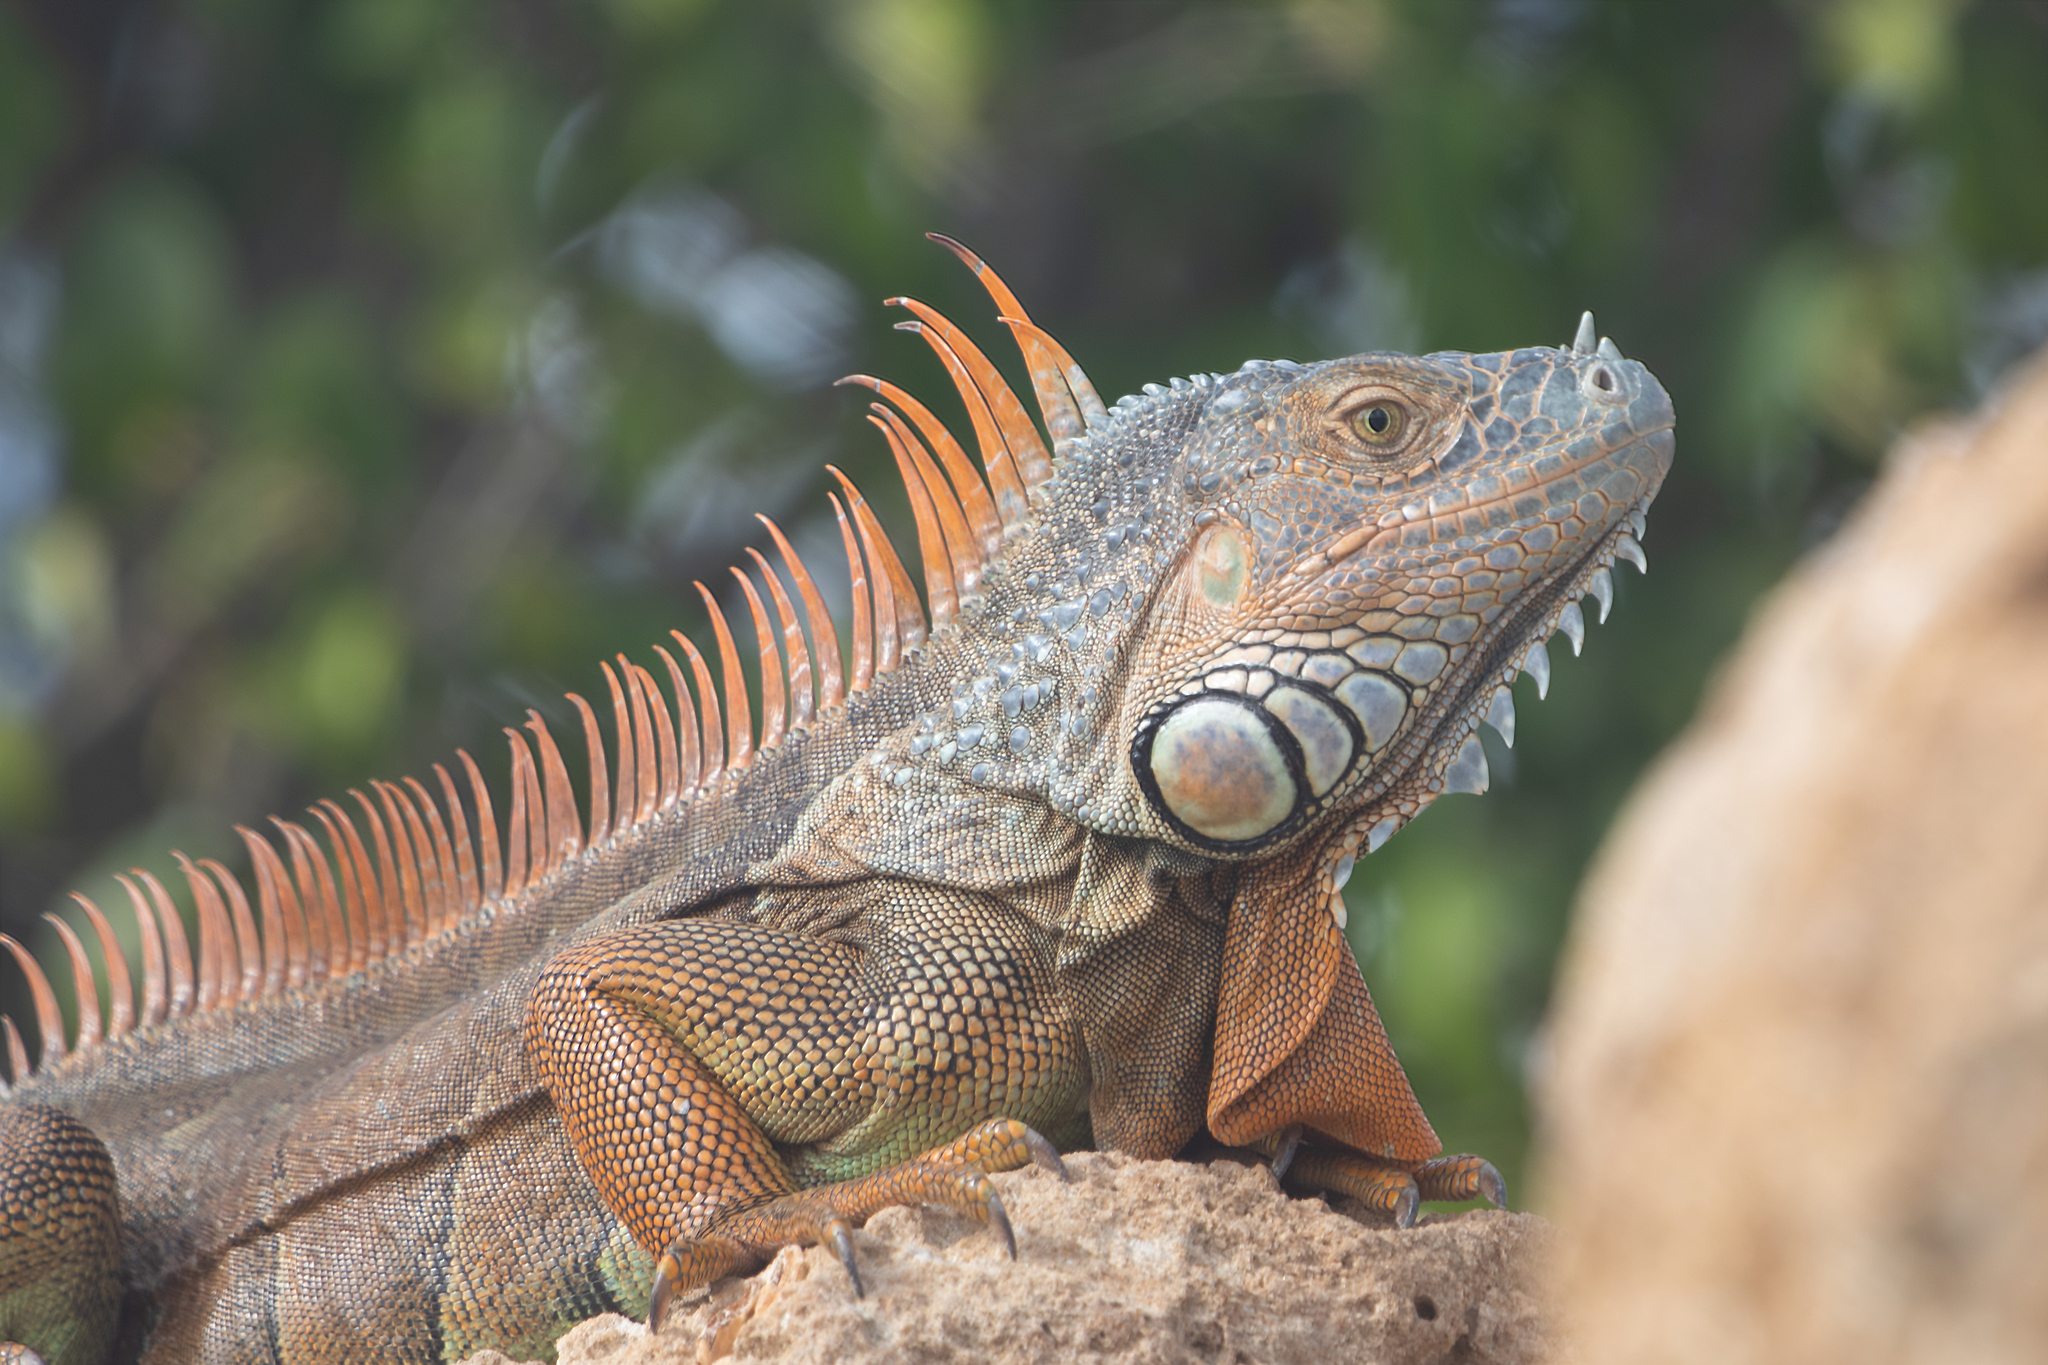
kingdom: Animalia
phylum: Chordata
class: Squamata
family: Iguanidae
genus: Iguana
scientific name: Iguana iguana
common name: Green iguana
